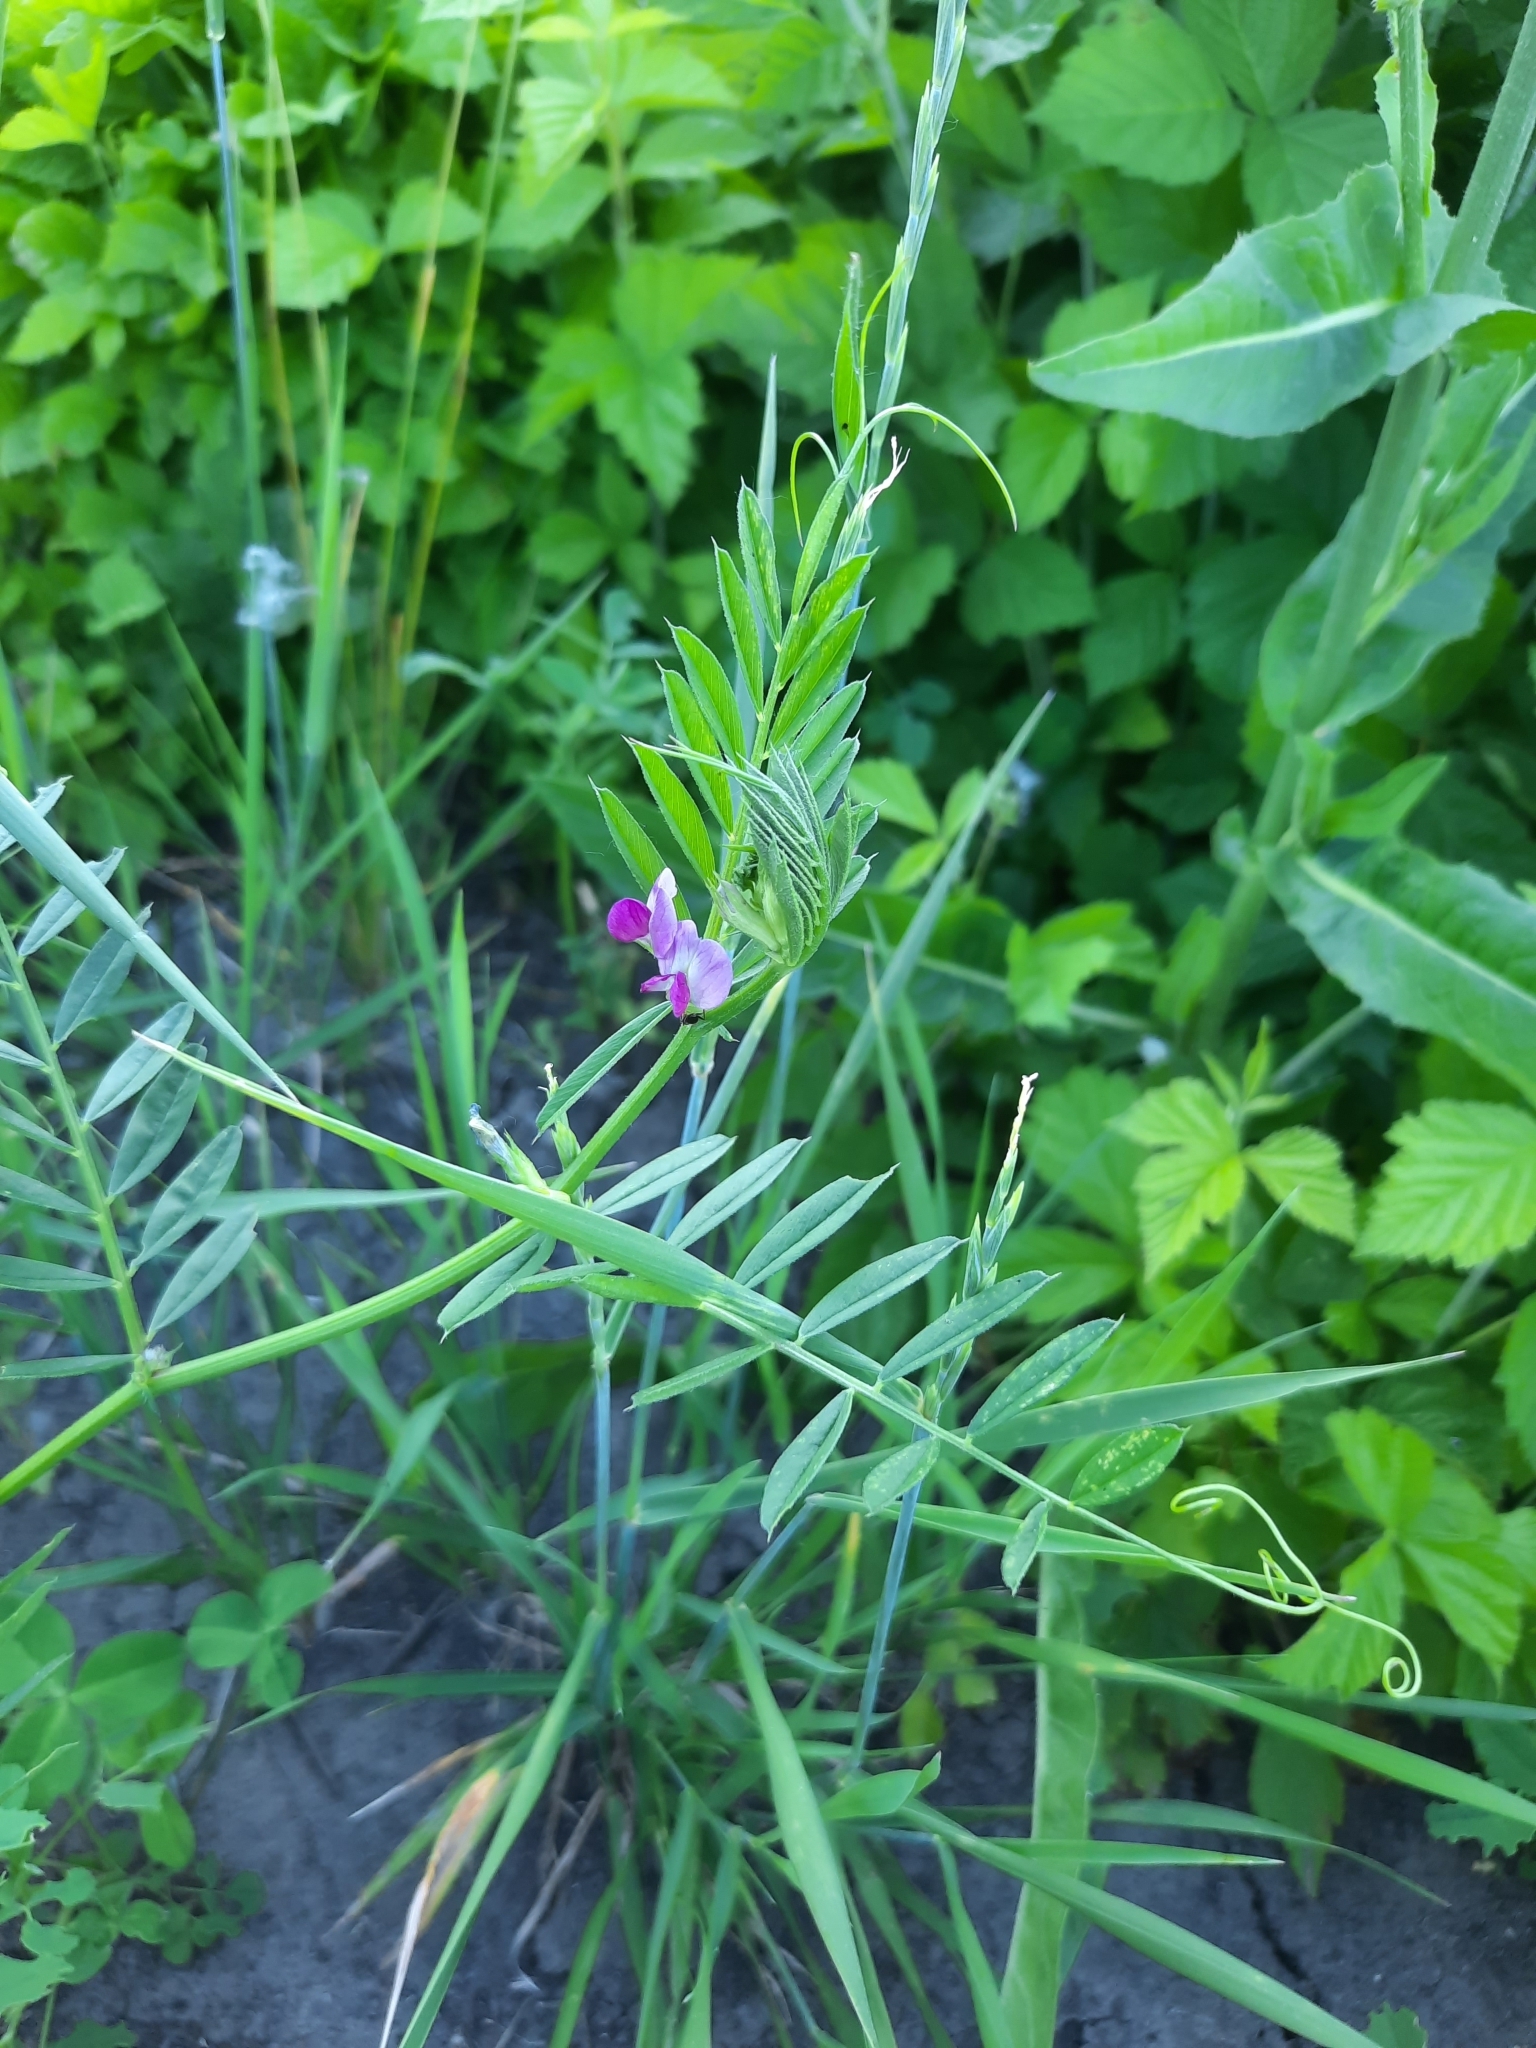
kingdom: Plantae
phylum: Tracheophyta
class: Magnoliopsida
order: Fabales
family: Fabaceae
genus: Vicia
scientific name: Vicia sativa
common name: Garden vetch
